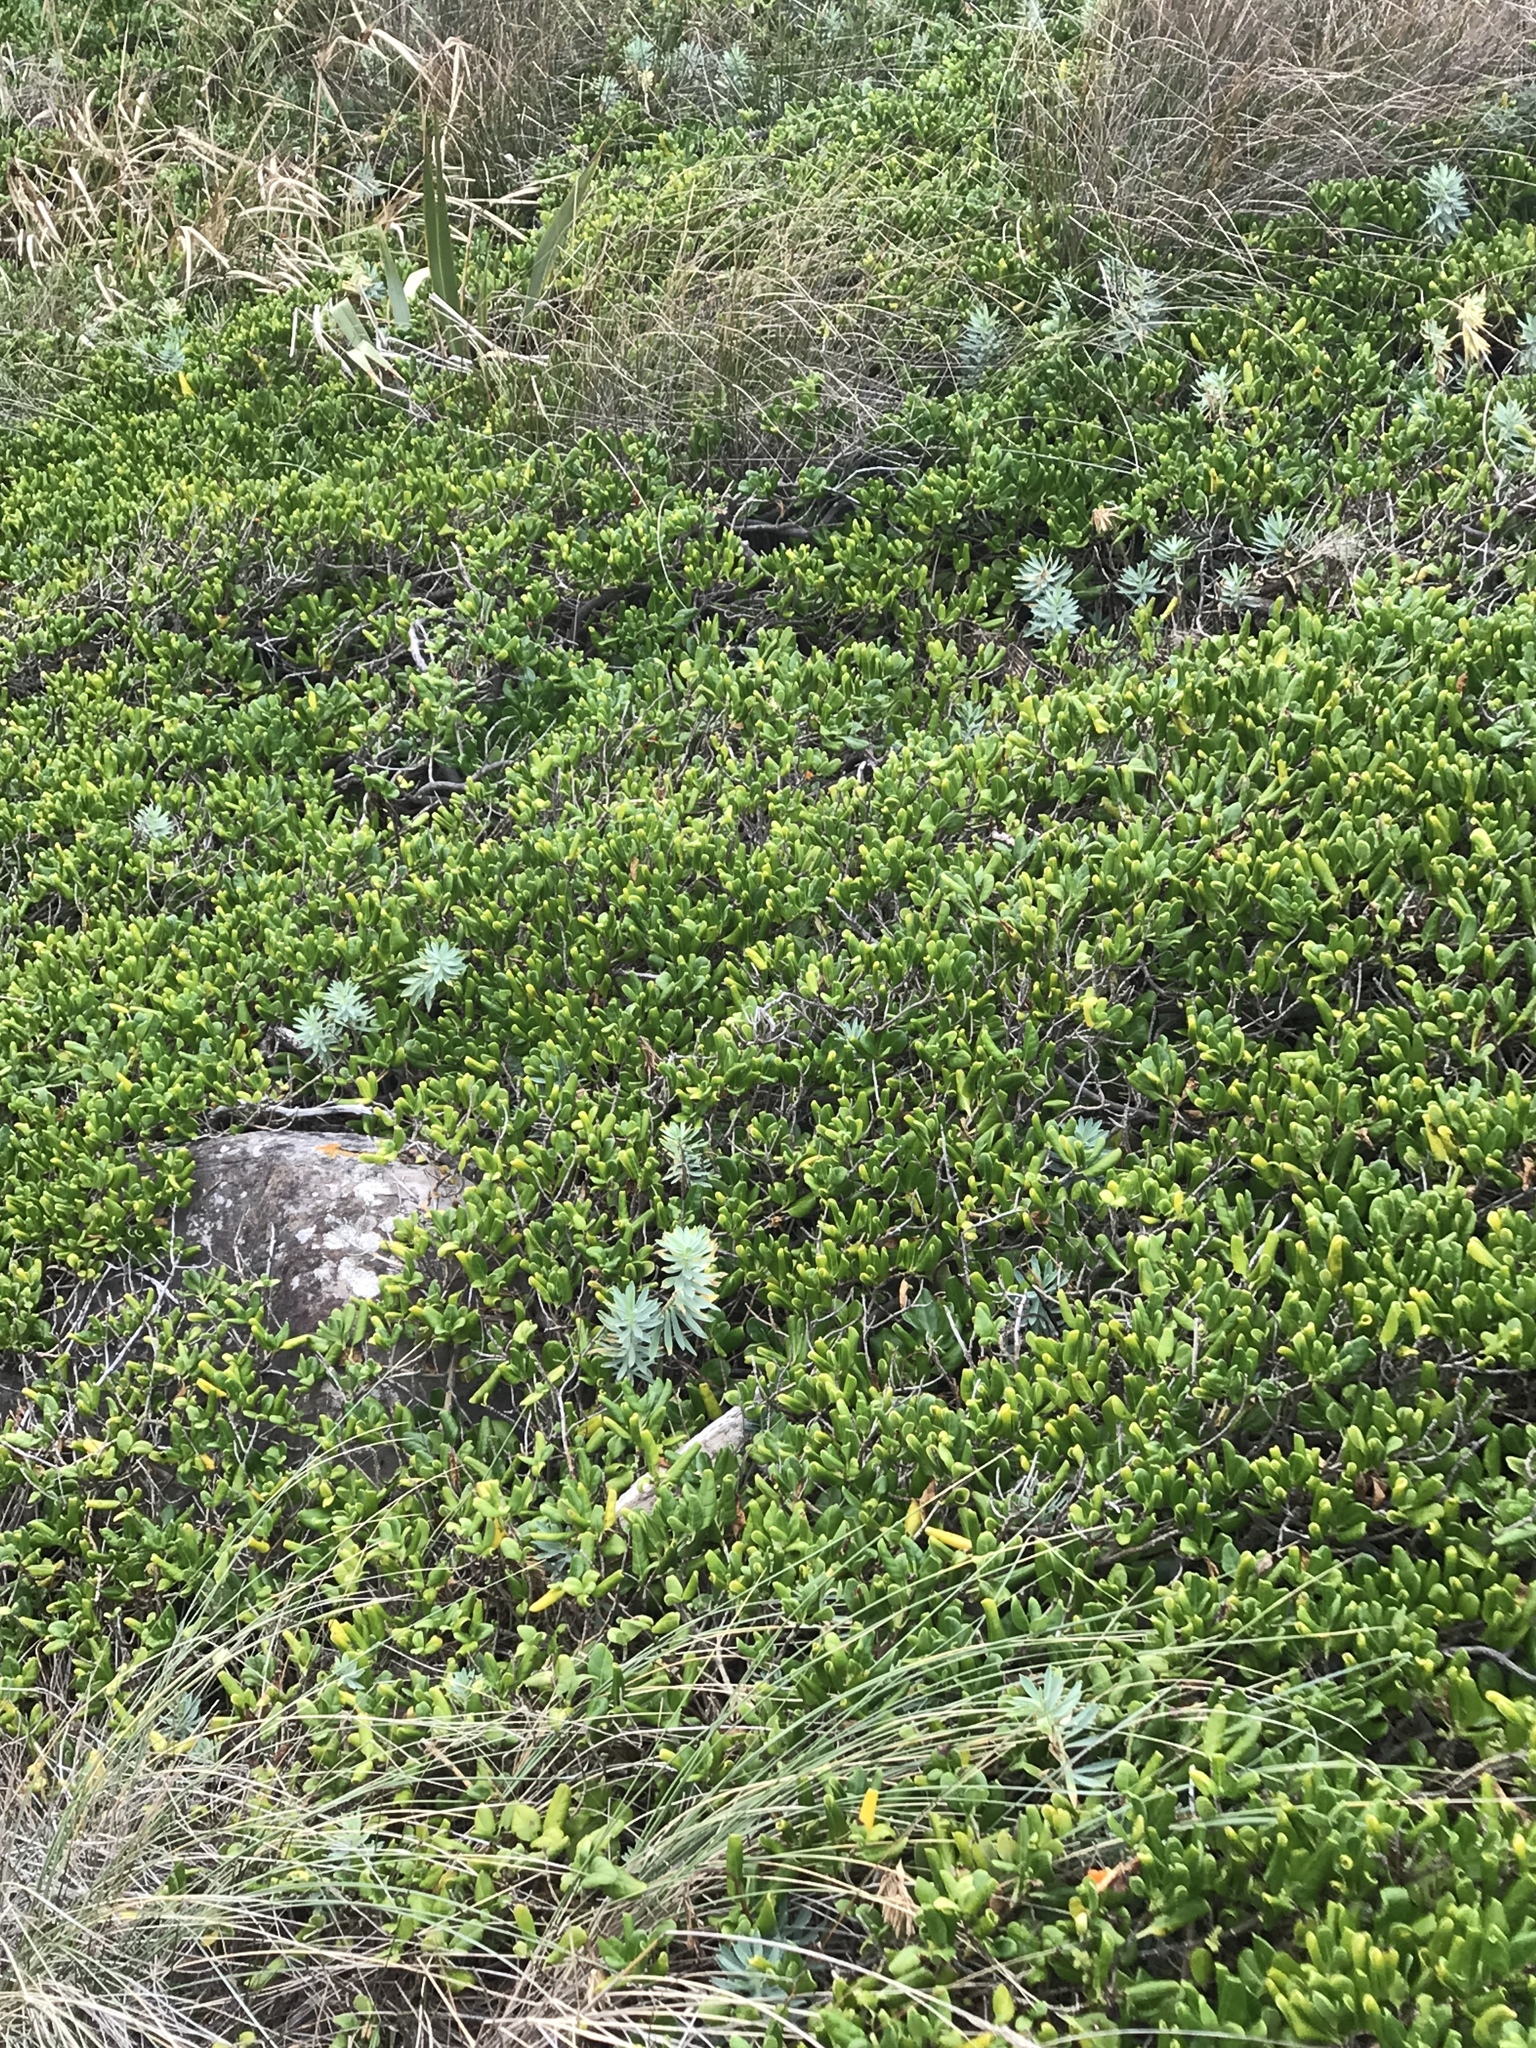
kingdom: Plantae
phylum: Tracheophyta
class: Magnoliopsida
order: Malpighiales
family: Euphorbiaceae
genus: Euphorbia
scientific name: Euphorbia glauca
